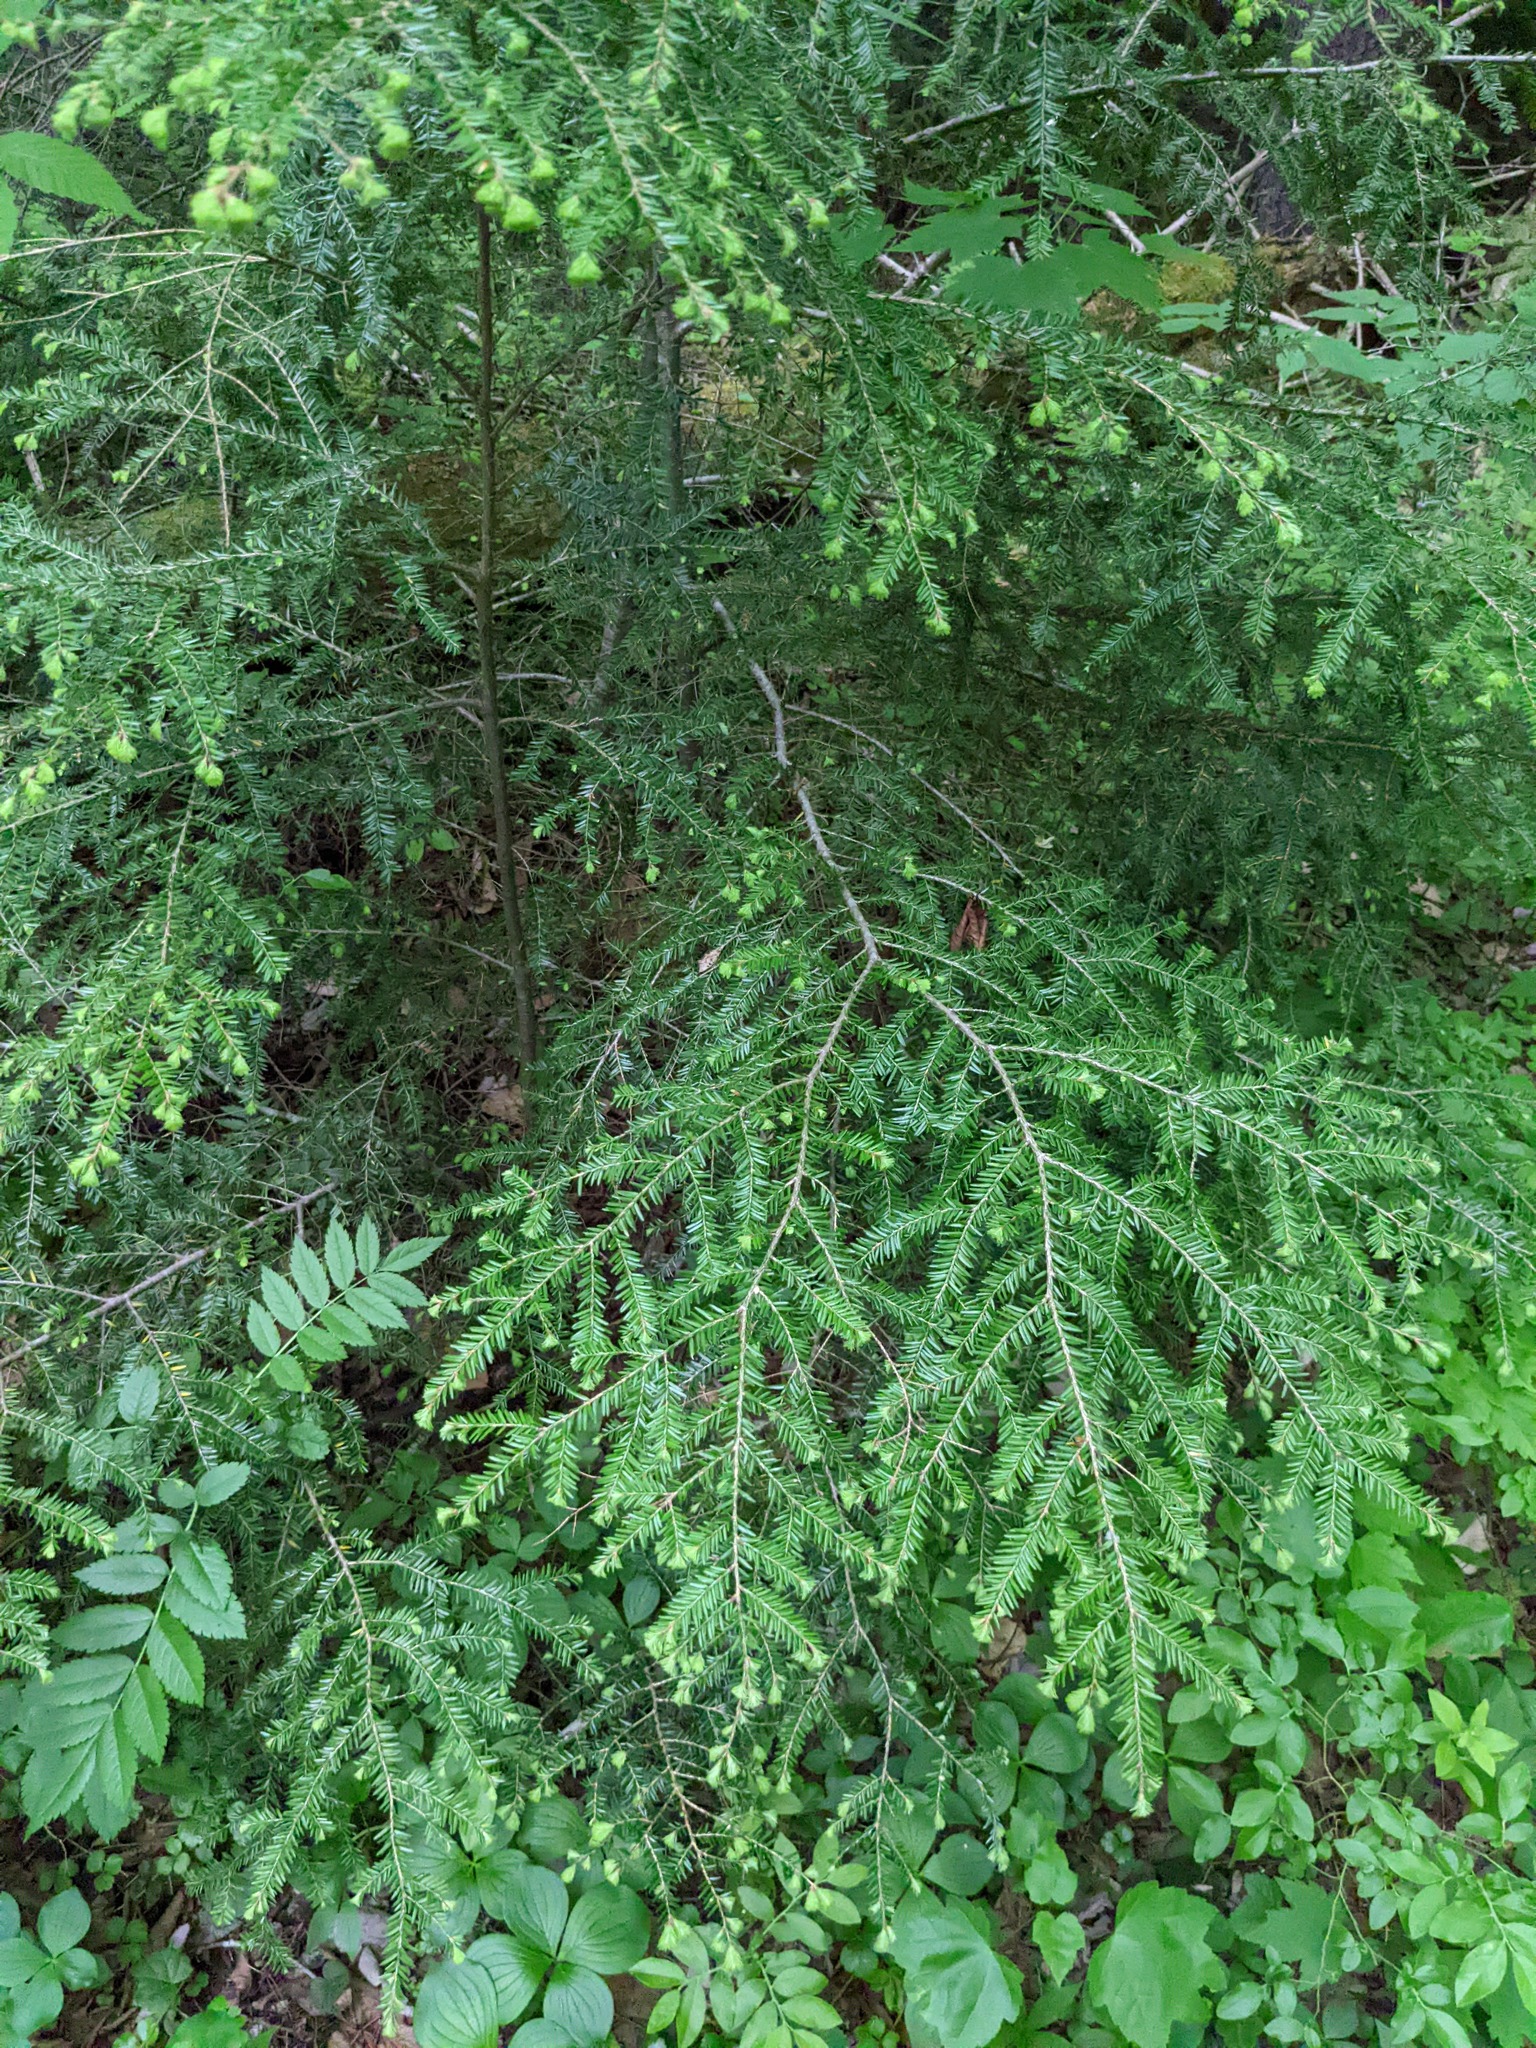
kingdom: Plantae
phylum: Tracheophyta
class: Pinopsida
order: Pinales
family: Pinaceae
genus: Tsuga
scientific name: Tsuga canadensis
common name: Eastern hemlock
